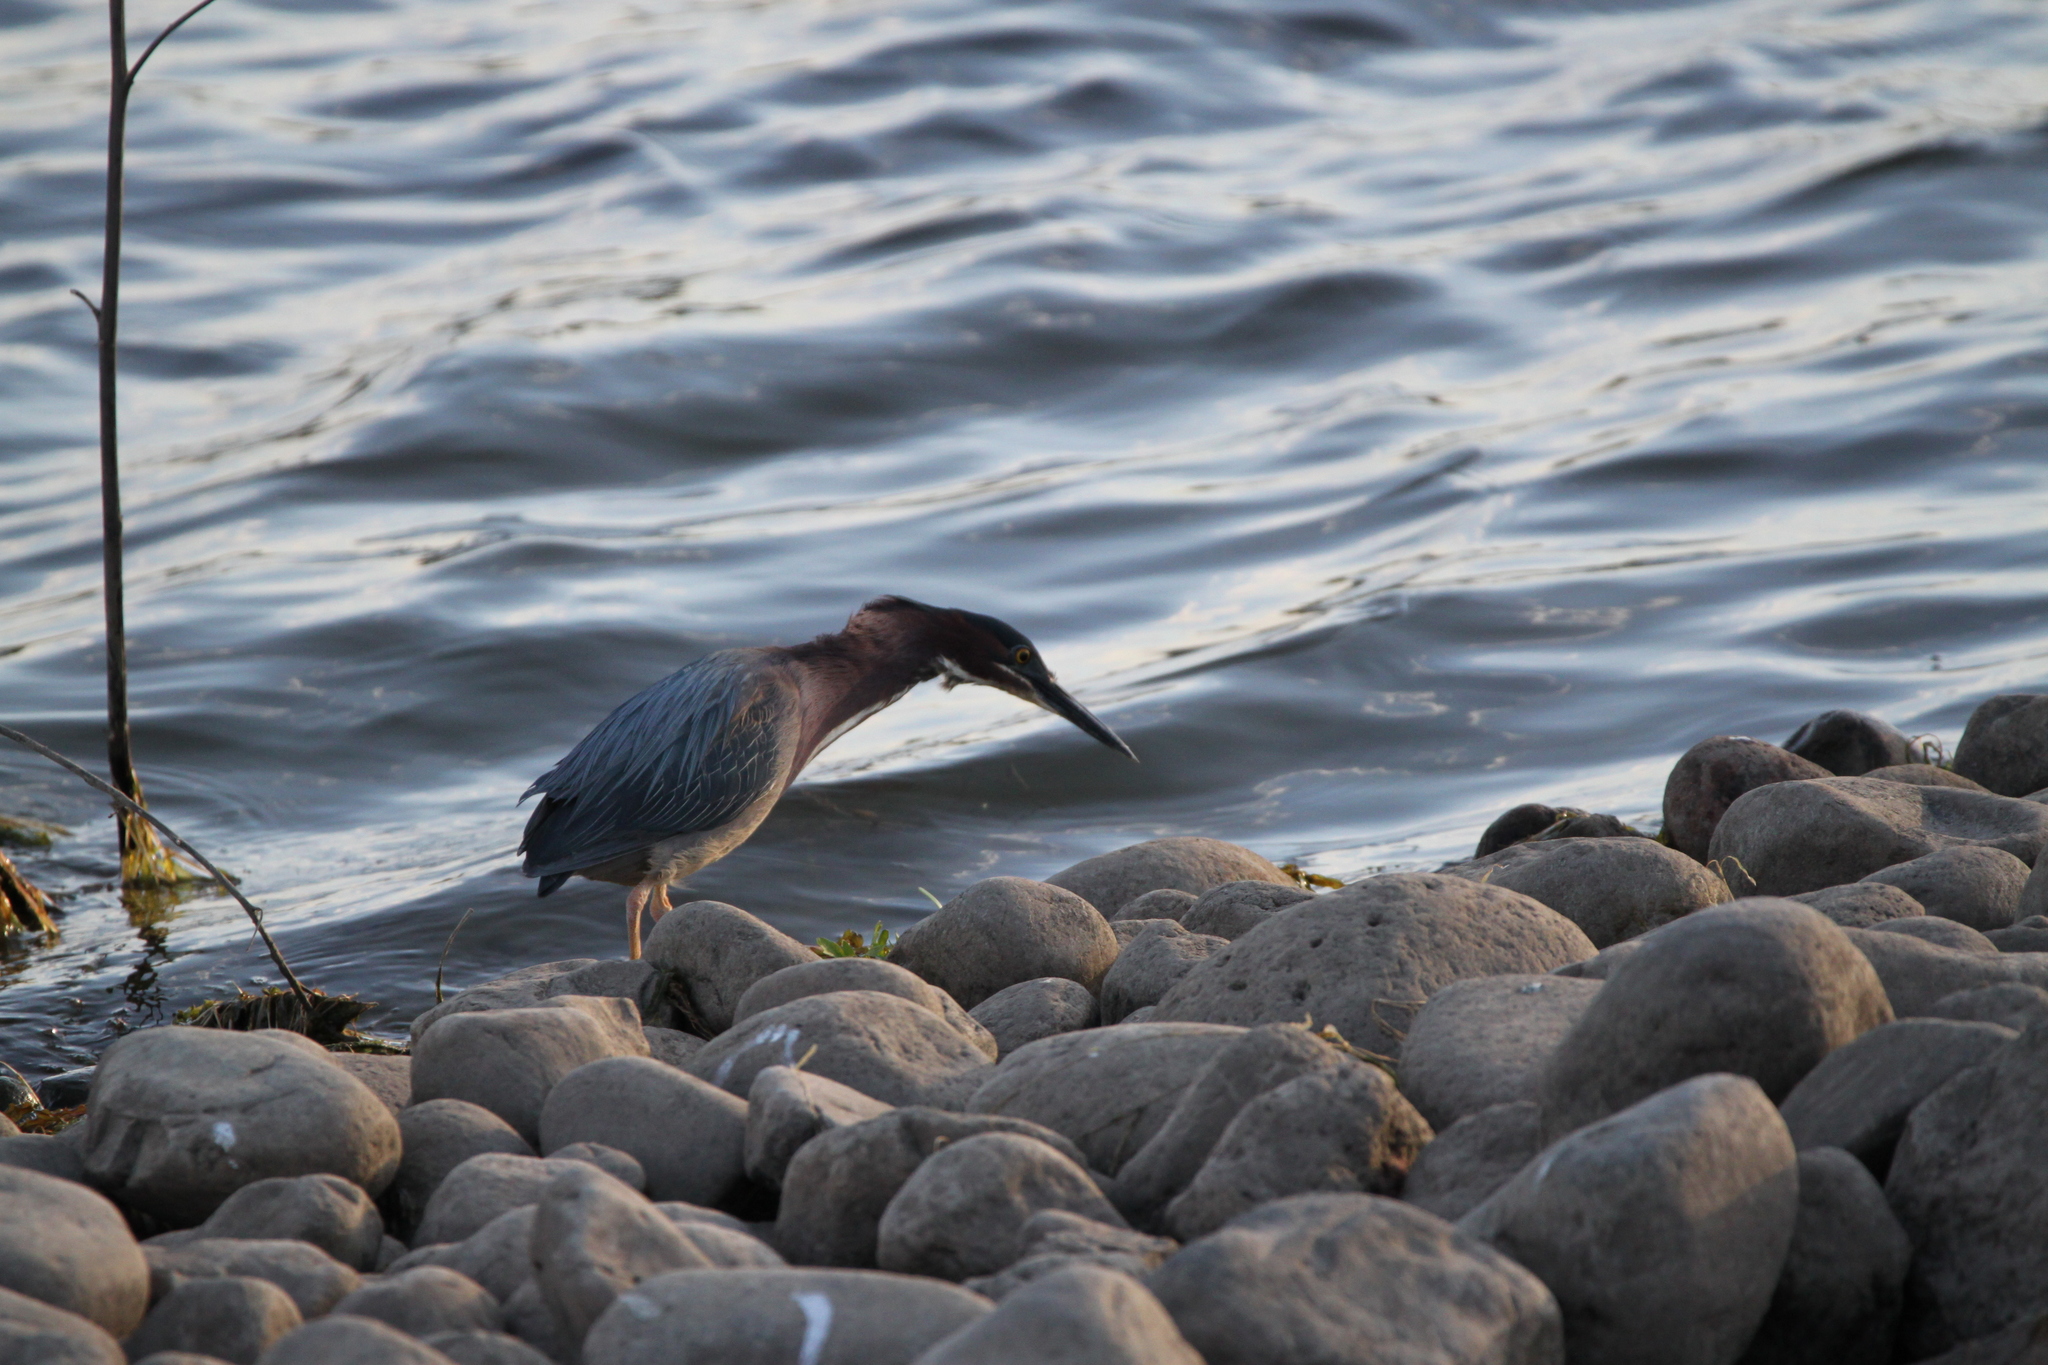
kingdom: Animalia
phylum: Chordata
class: Aves
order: Pelecaniformes
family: Ardeidae
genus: Butorides
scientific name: Butorides virescens
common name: Green heron
